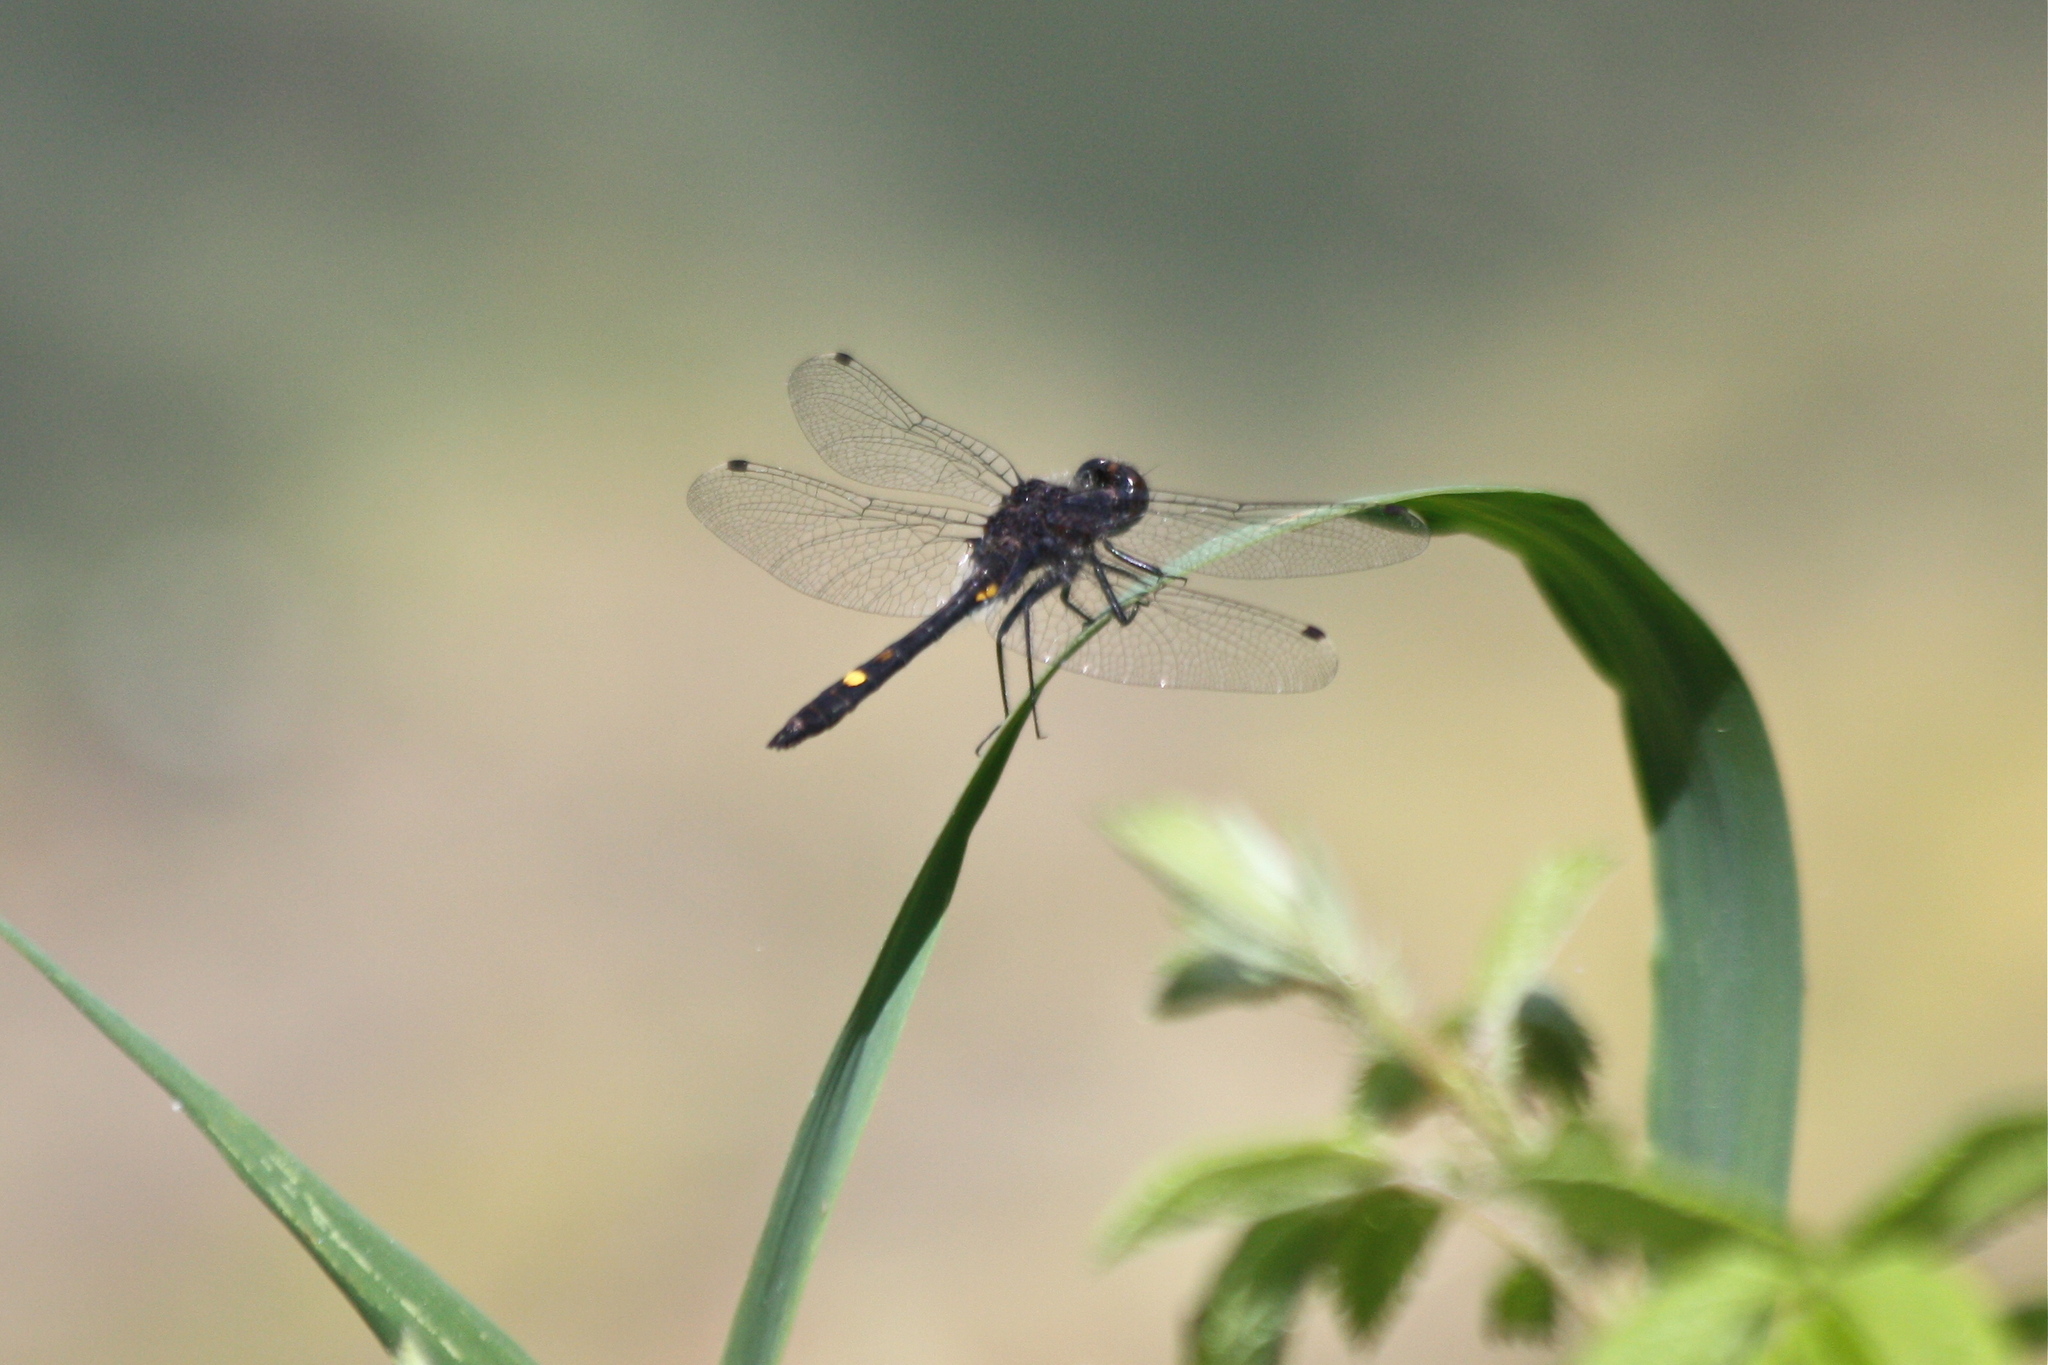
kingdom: Animalia
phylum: Arthropoda
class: Insecta
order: Odonata
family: Libellulidae
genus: Leucorrhinia
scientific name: Leucorrhinia intacta
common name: Dot-tailed whiteface
